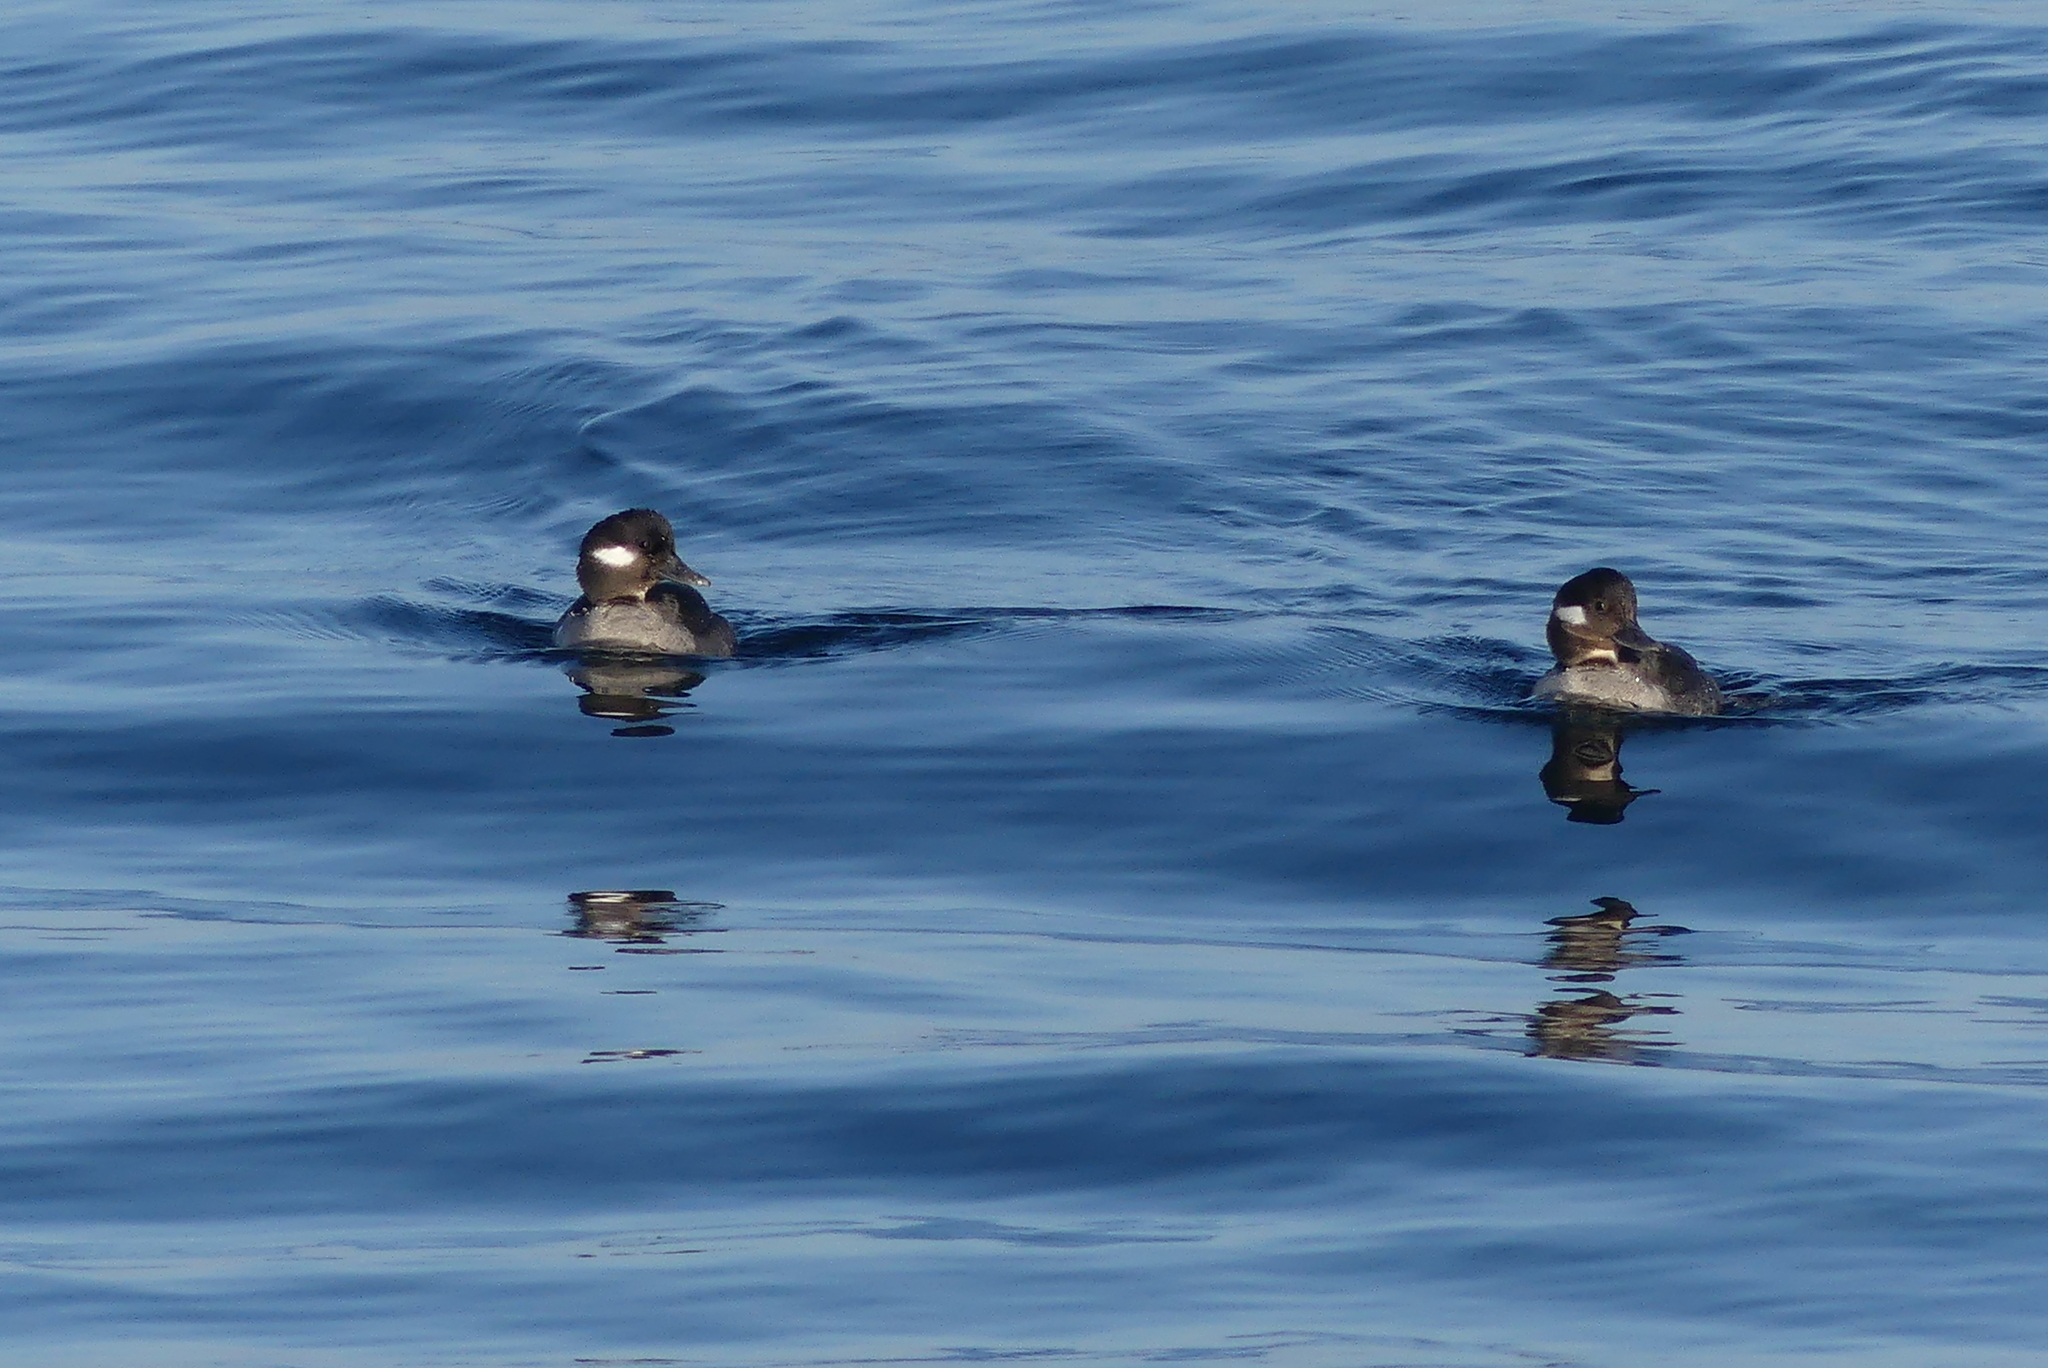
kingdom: Animalia
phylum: Chordata
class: Aves
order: Anseriformes
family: Anatidae
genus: Bucephala
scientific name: Bucephala albeola
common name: Bufflehead
